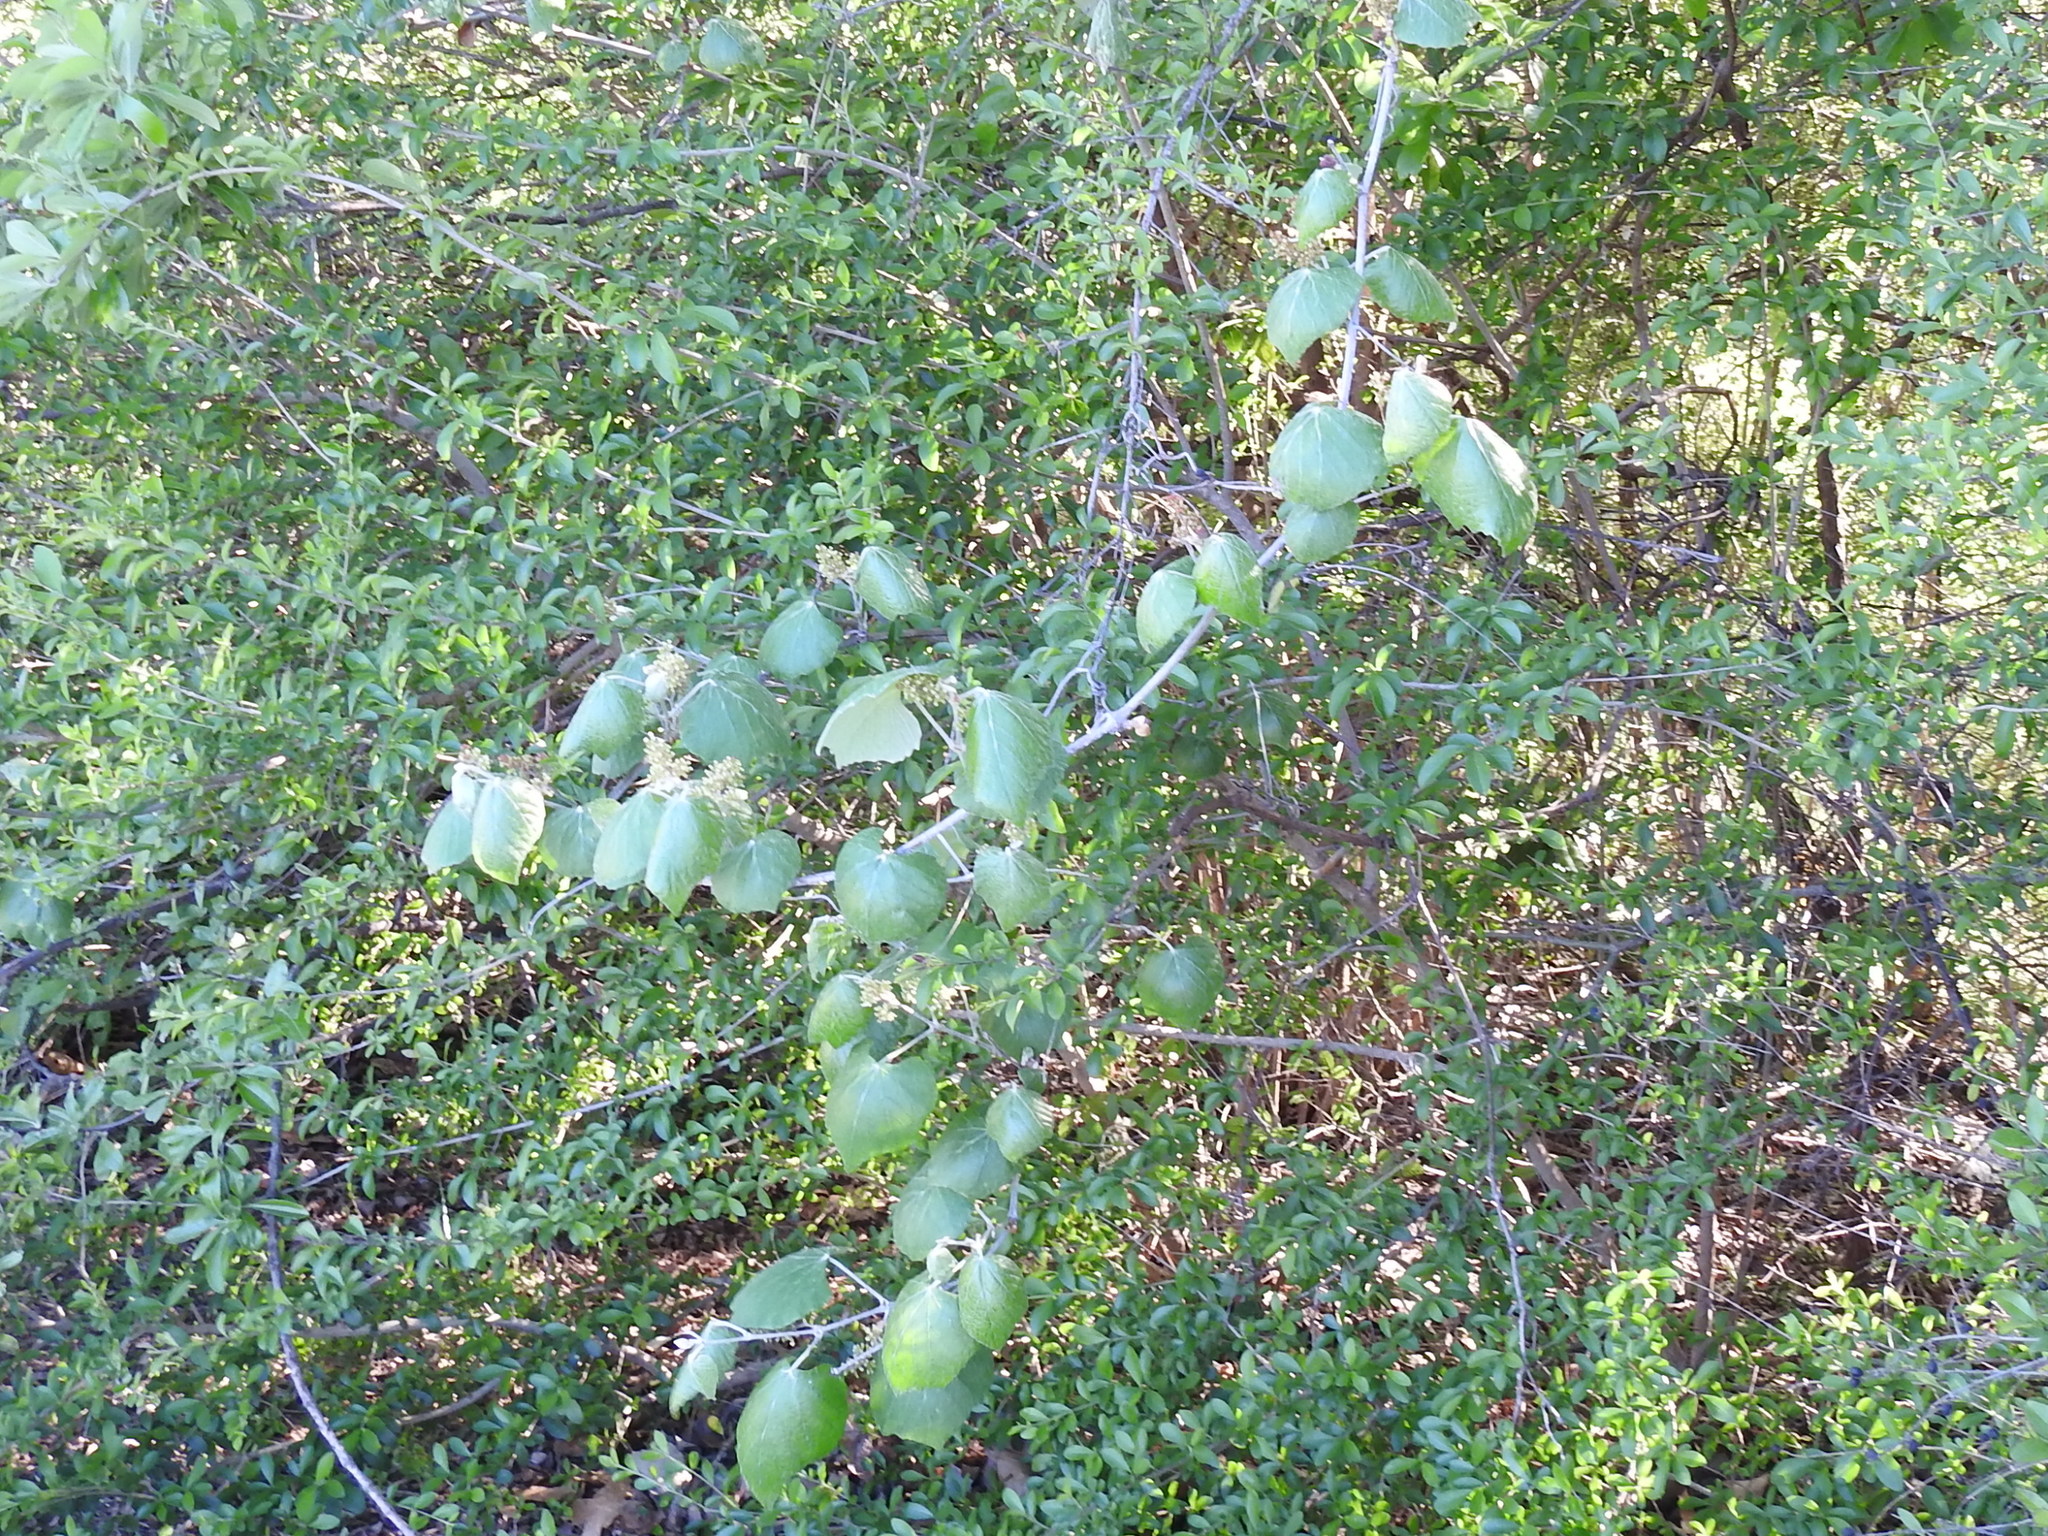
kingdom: Plantae
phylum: Tracheophyta
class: Magnoliopsida
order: Vitales
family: Vitaceae
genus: Vitis
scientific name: Vitis mustangensis
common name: Mustang grape
